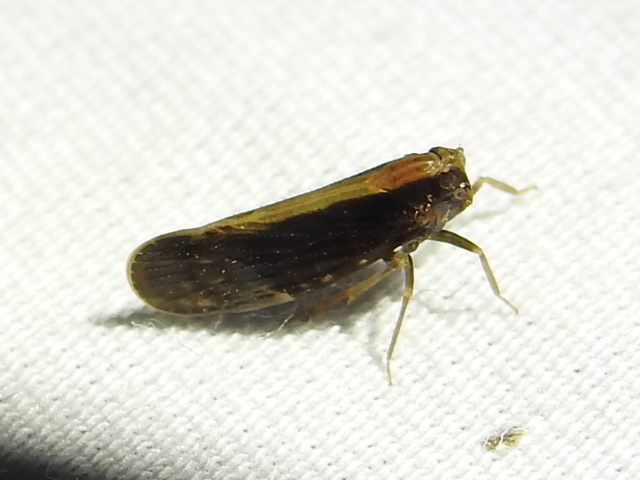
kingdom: Animalia
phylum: Arthropoda
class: Insecta
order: Hemiptera
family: Cixiidae
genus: Pintalia
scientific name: Pintalia delicata
